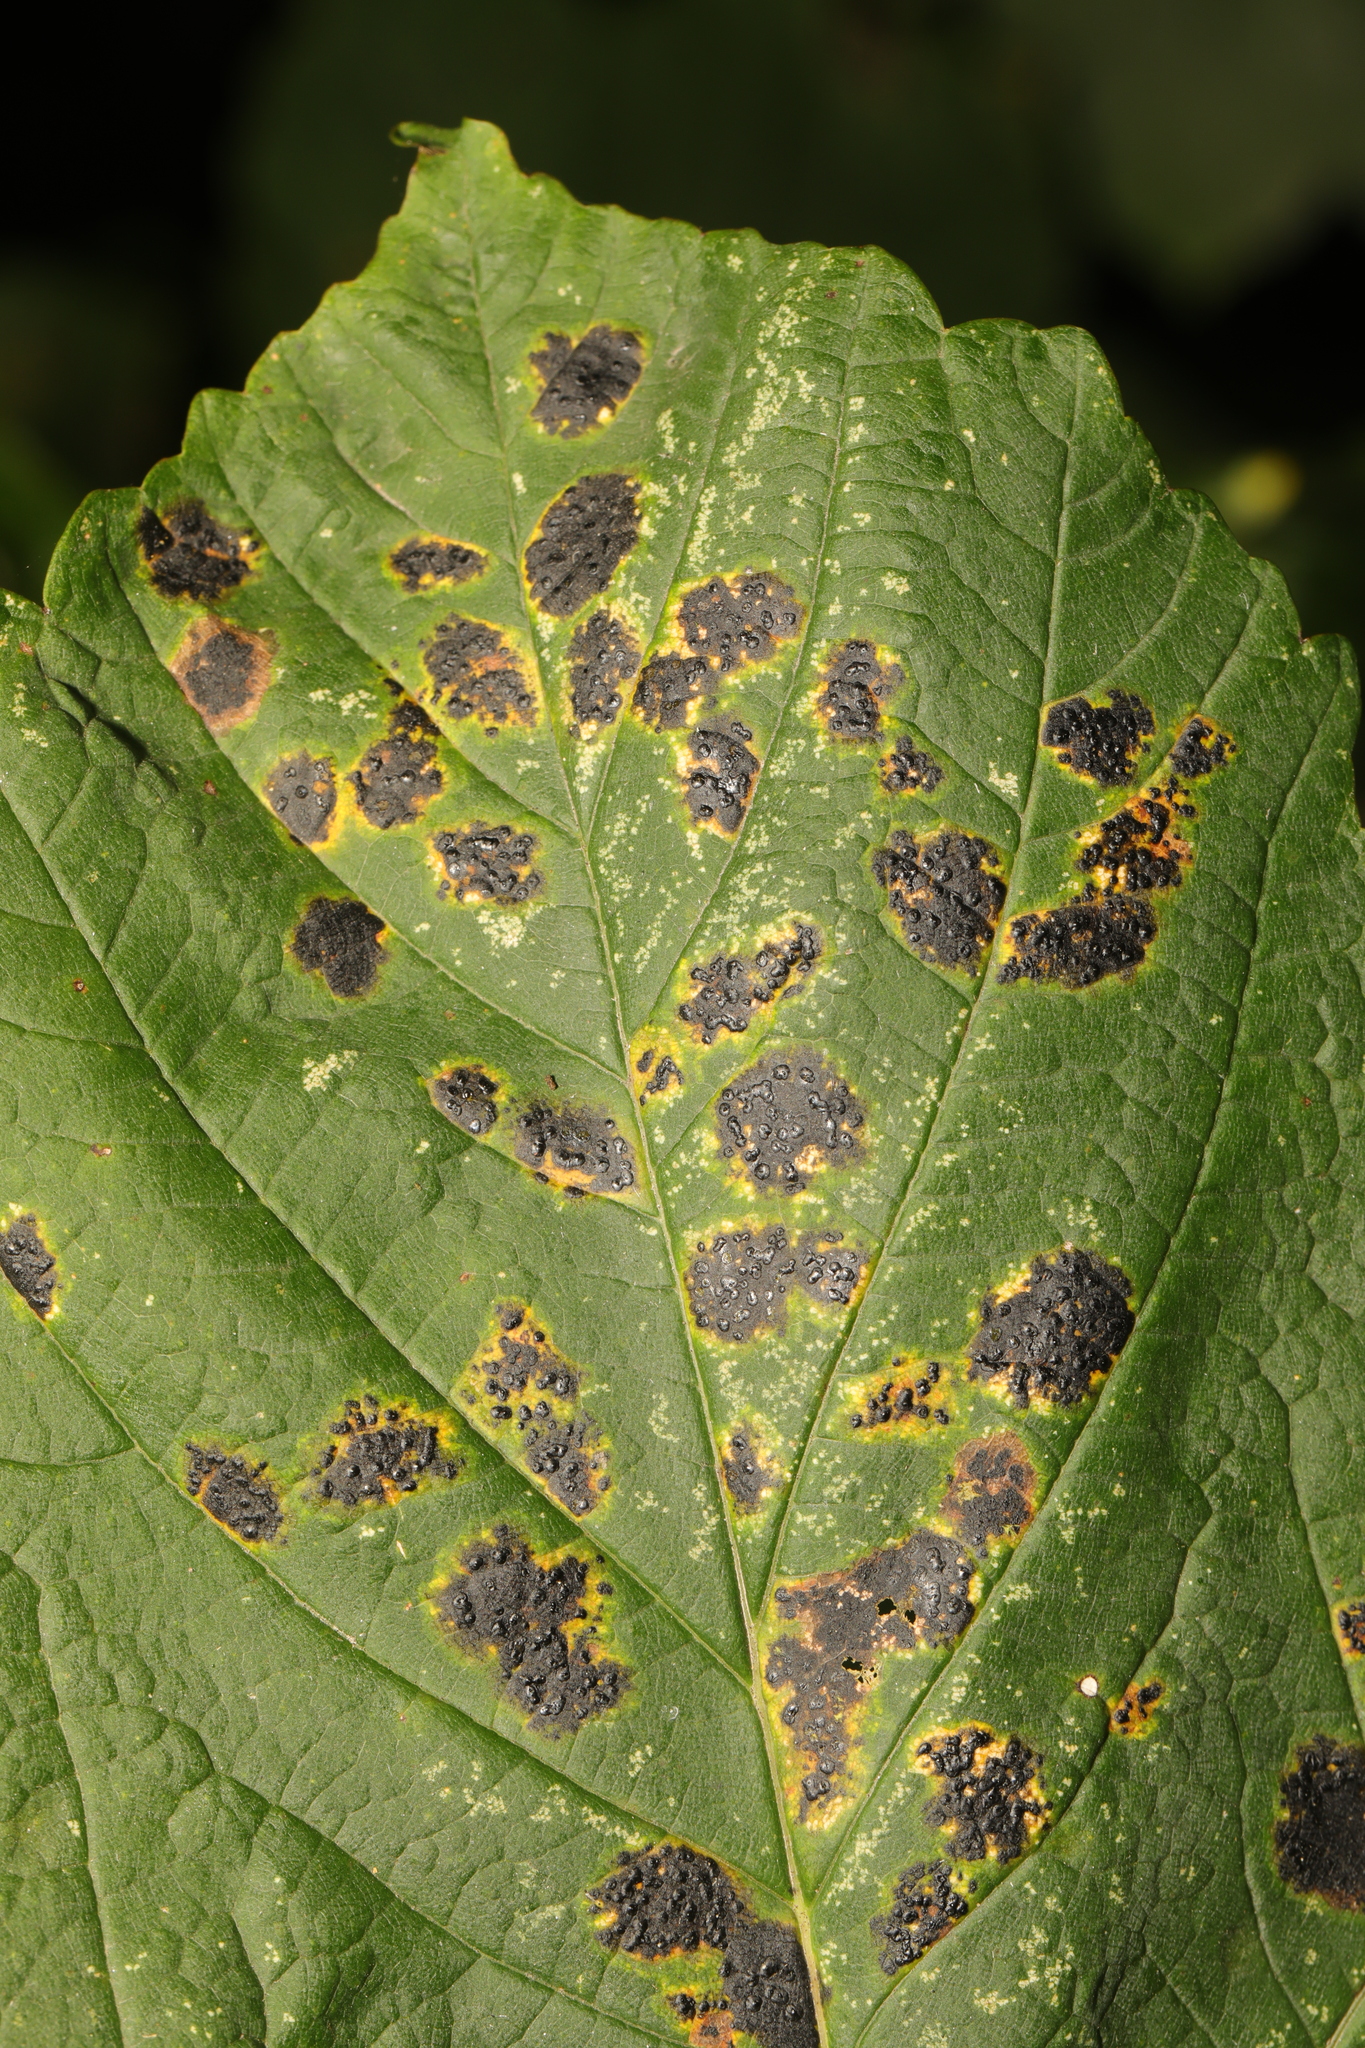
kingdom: Fungi
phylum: Ascomycota
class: Leotiomycetes
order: Rhytismatales
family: Rhytismataceae
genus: Rhytisma
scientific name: Rhytisma acerinum
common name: European tar spot
